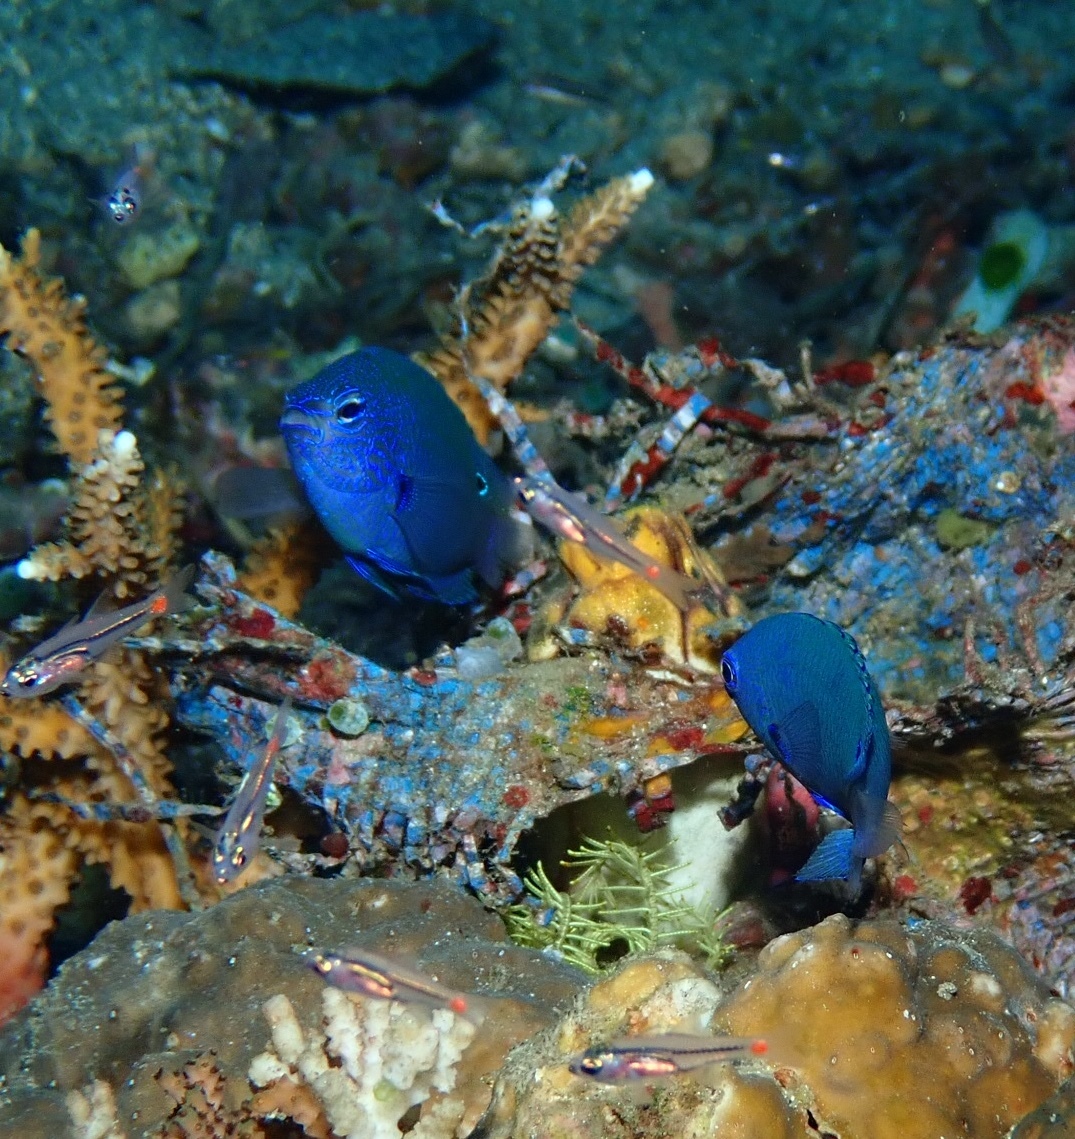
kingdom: Animalia
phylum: Chordata
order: Perciformes
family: Pomacentridae
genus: Pomacentrus
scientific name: Pomacentrus nagasakiensis
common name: Nagasaki damsel
